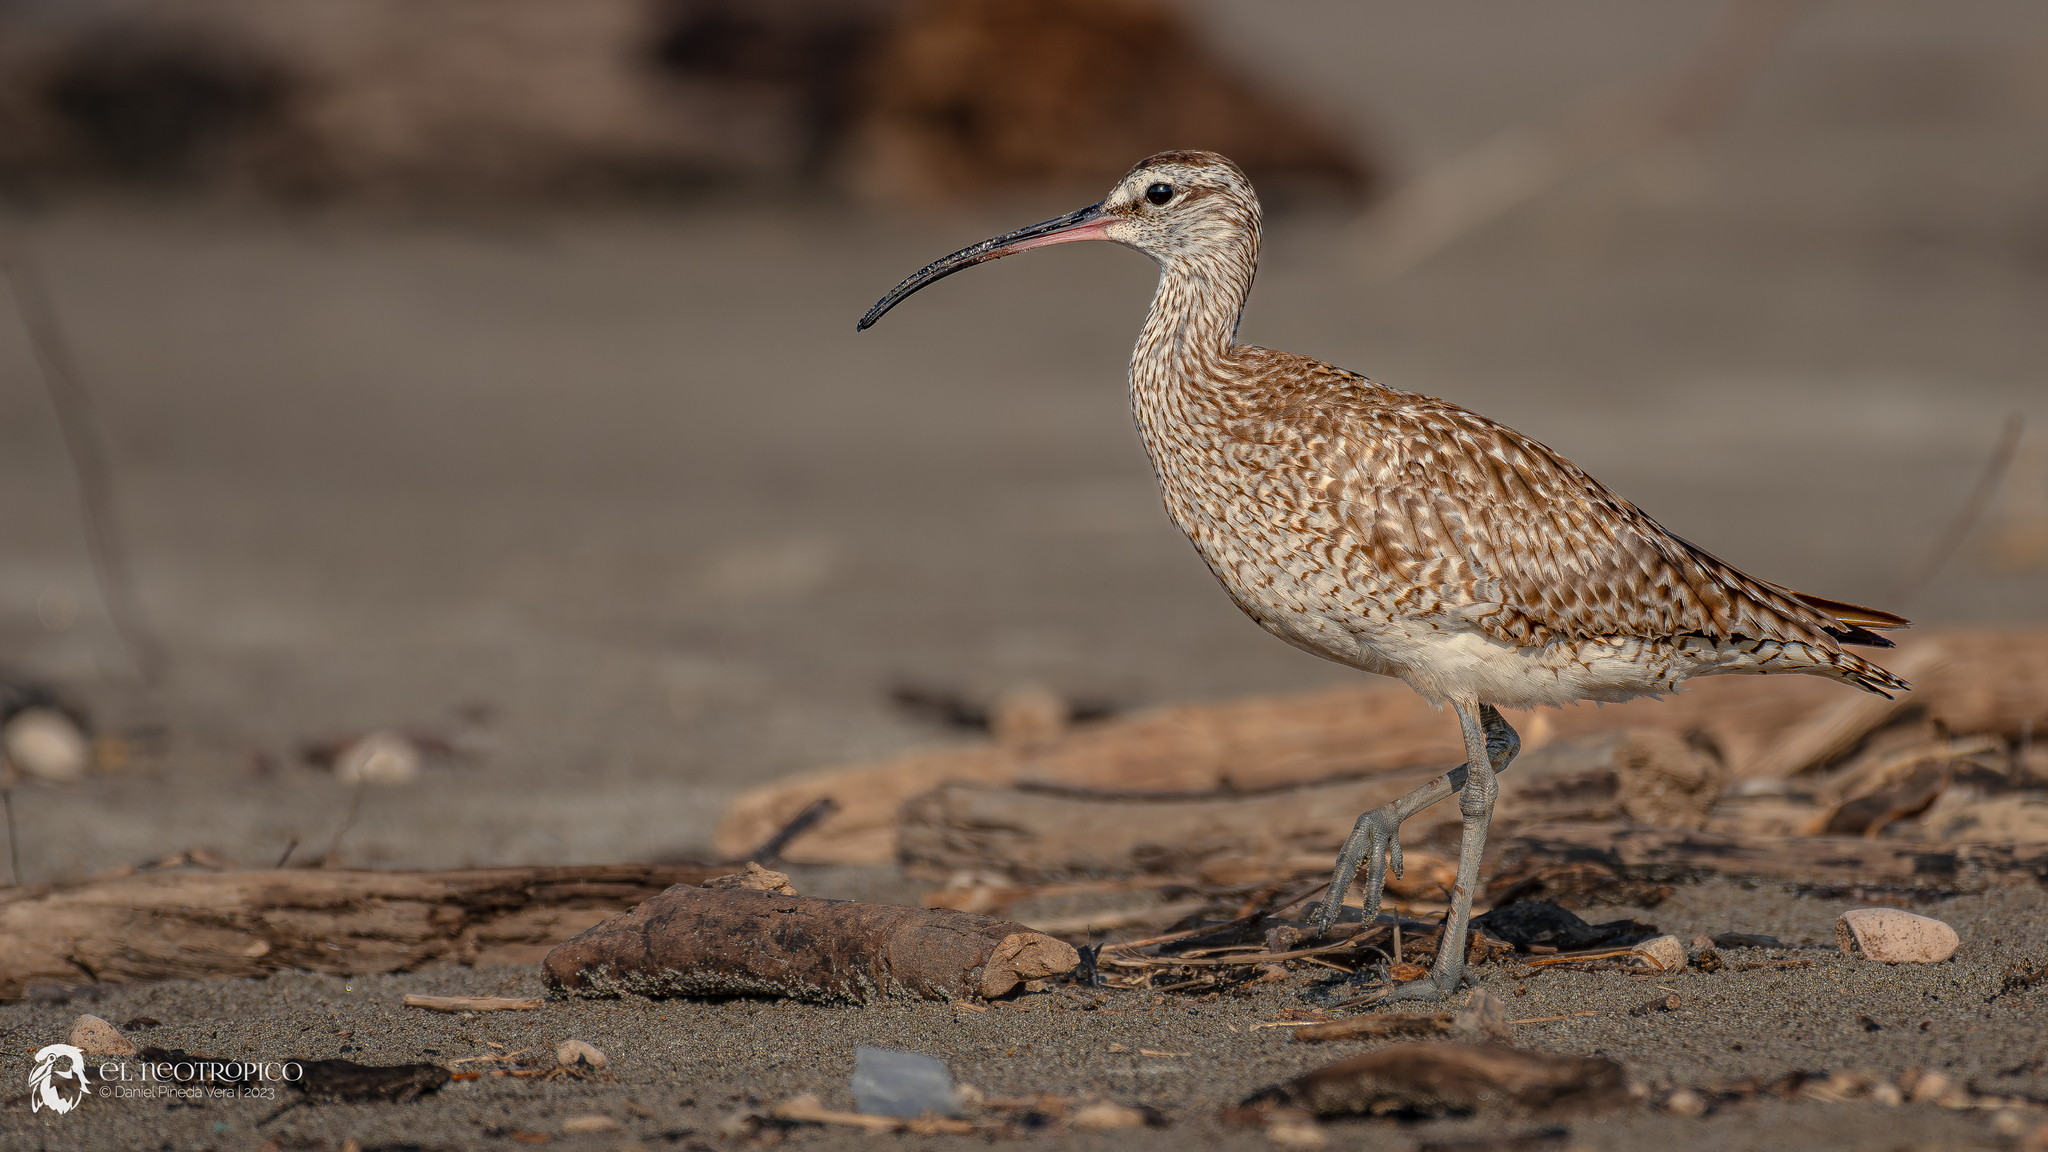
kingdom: Animalia
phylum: Chordata
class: Aves
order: Charadriiformes
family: Scolopacidae
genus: Numenius
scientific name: Numenius phaeopus
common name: Whimbrel
